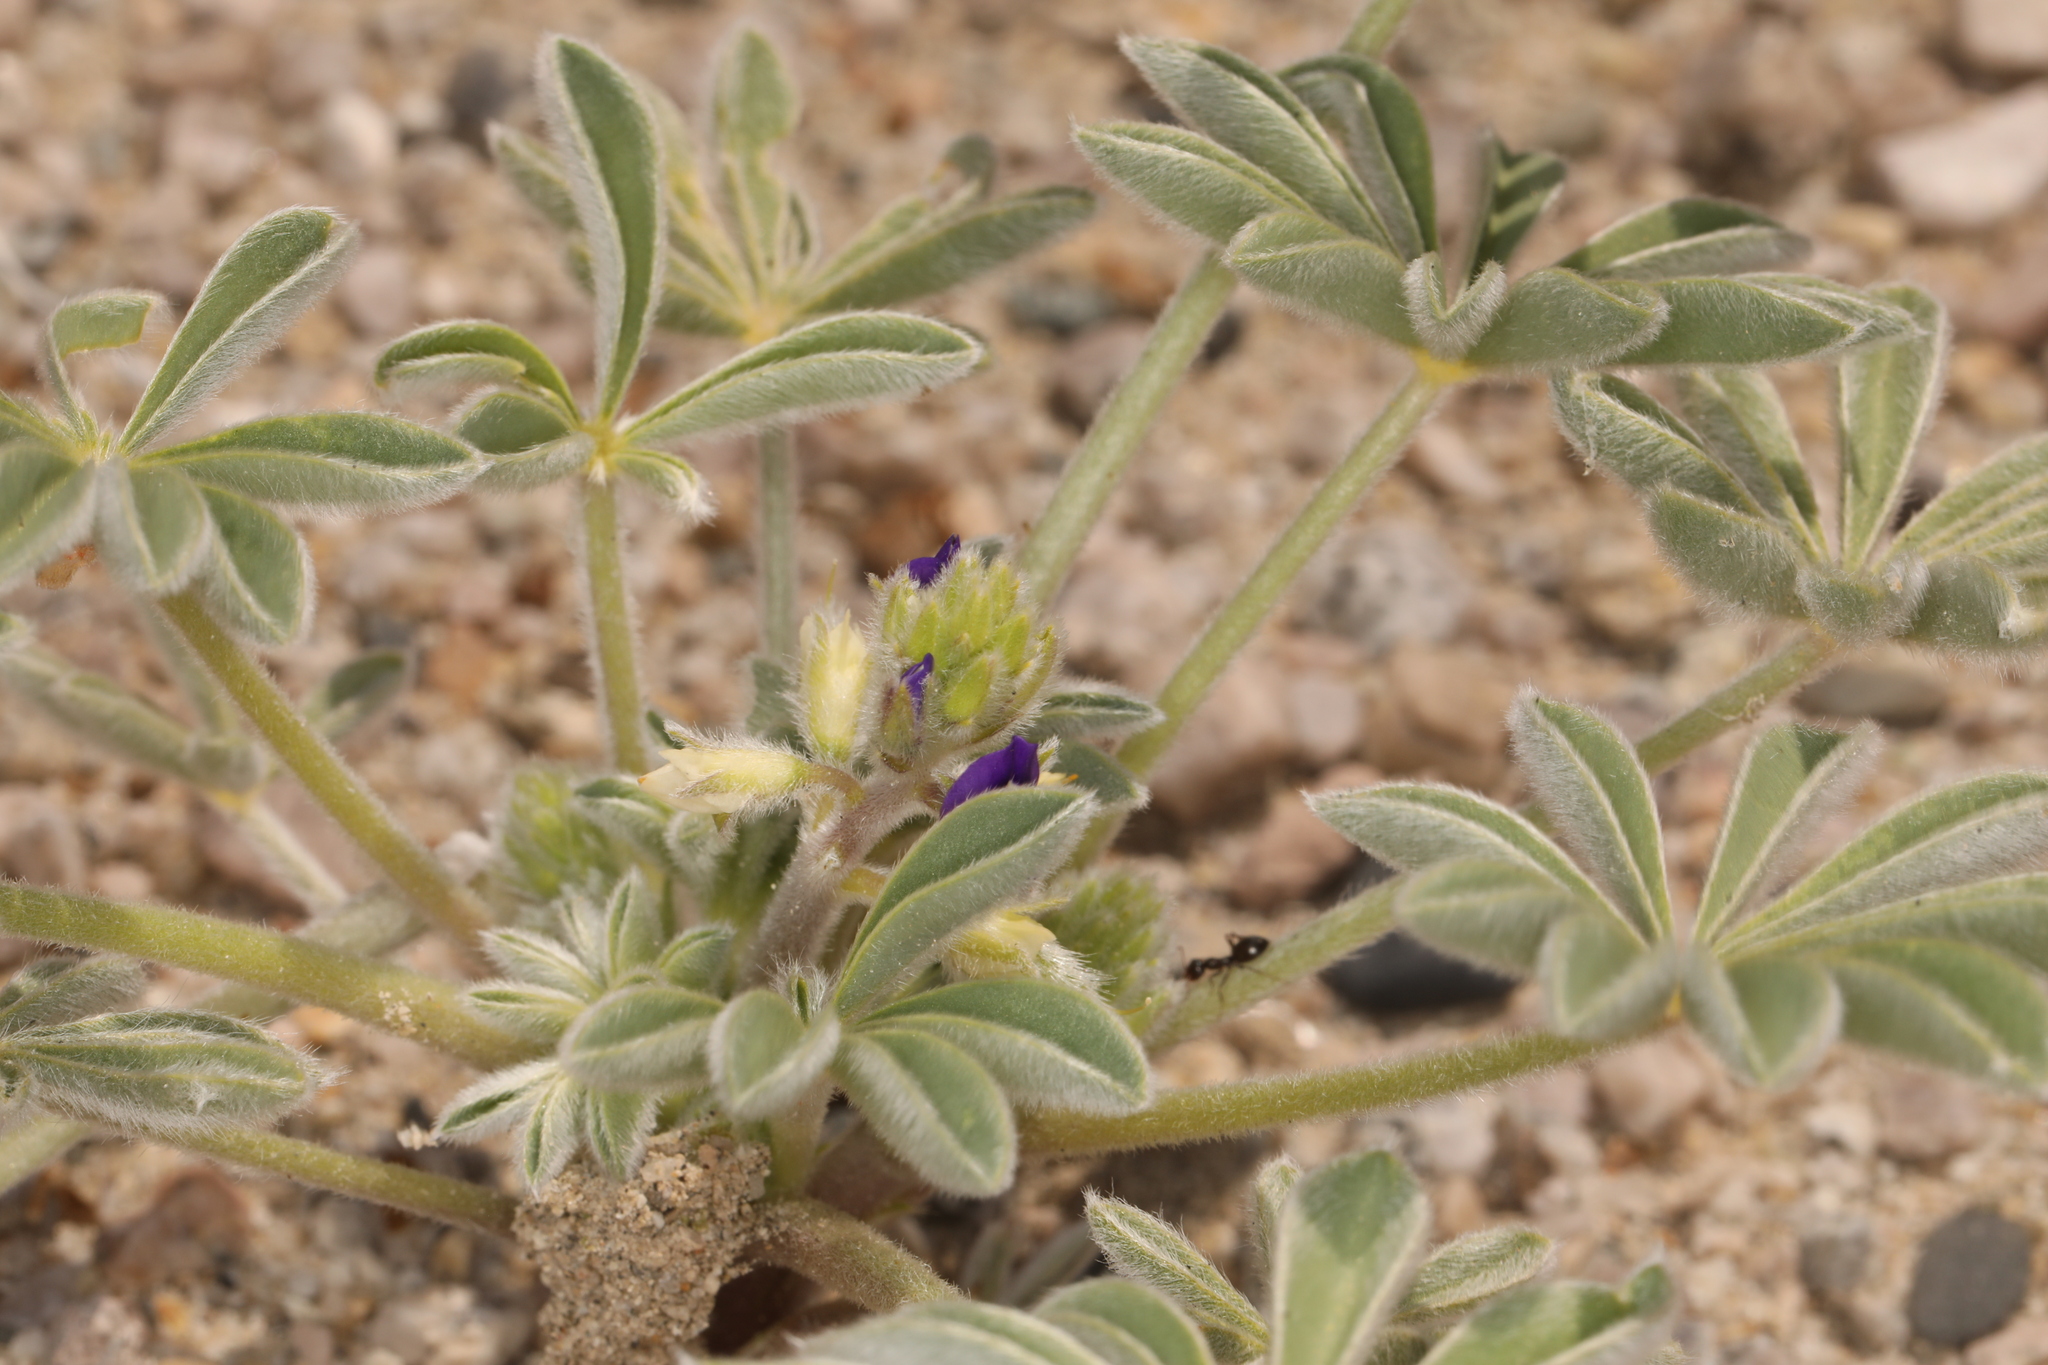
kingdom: Plantae
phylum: Tracheophyta
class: Magnoliopsida
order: Fabales
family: Fabaceae
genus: Lupinus
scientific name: Lupinus shockleyi
